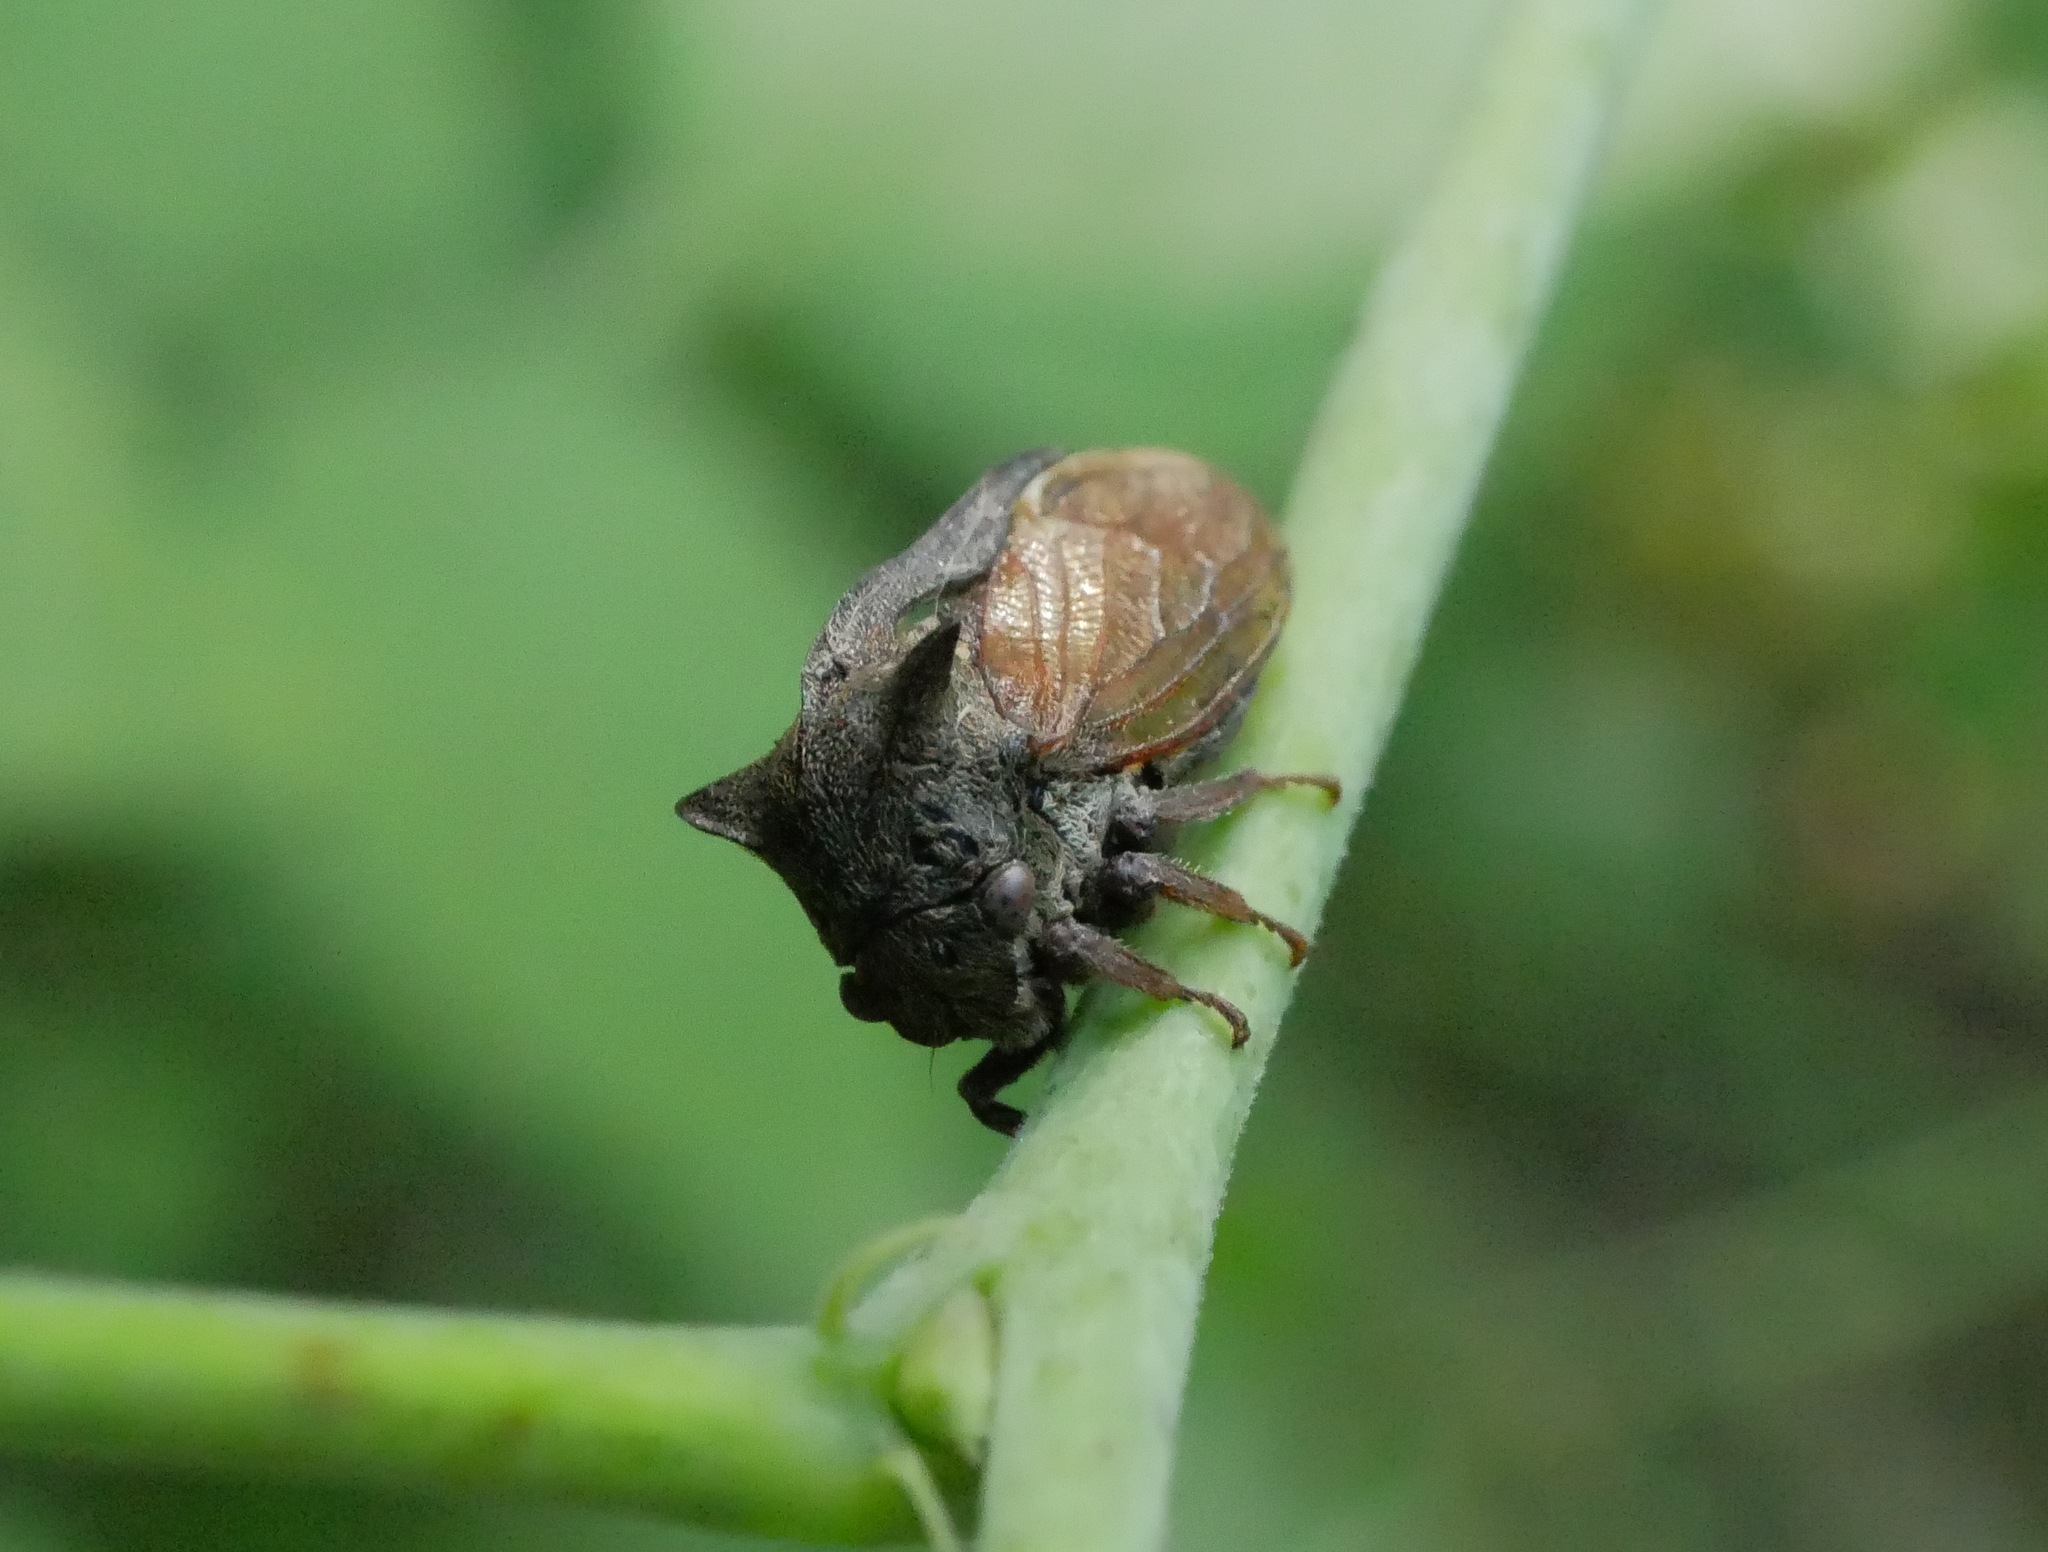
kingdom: Animalia
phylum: Arthropoda
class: Insecta
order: Hemiptera
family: Membracidae
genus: Centrotus
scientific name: Centrotus cornuta
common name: Treehopper
